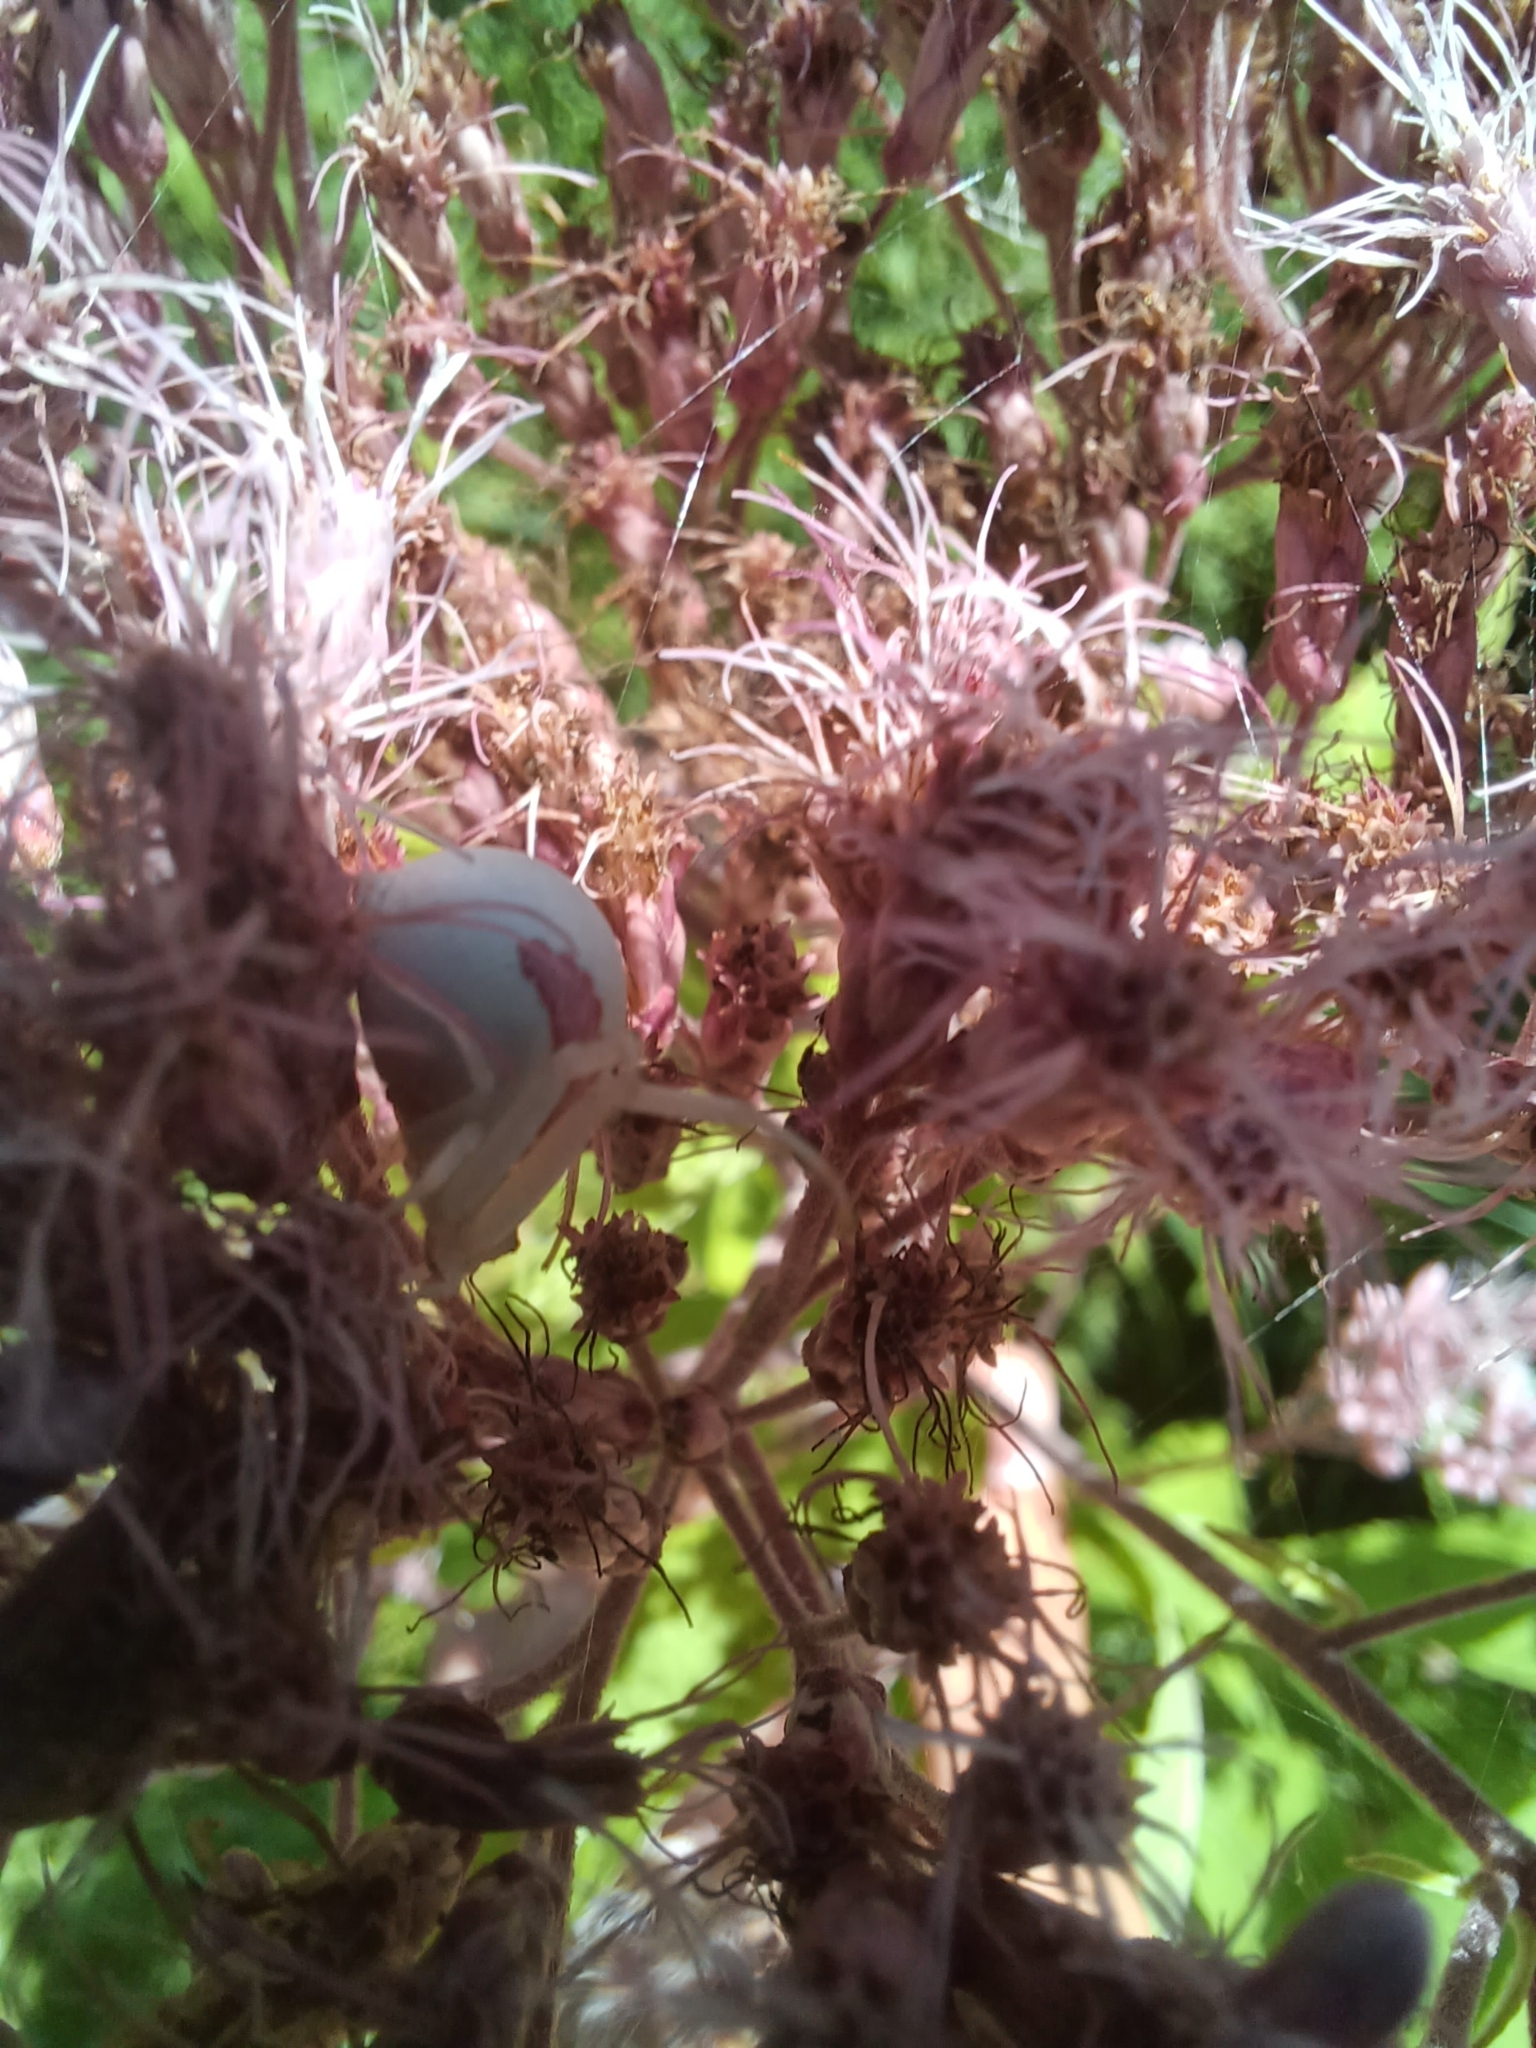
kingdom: Animalia
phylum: Arthropoda
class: Arachnida
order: Araneae
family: Thomisidae
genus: Misumena
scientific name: Misumena vatia
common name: Goldenrod crab spider
